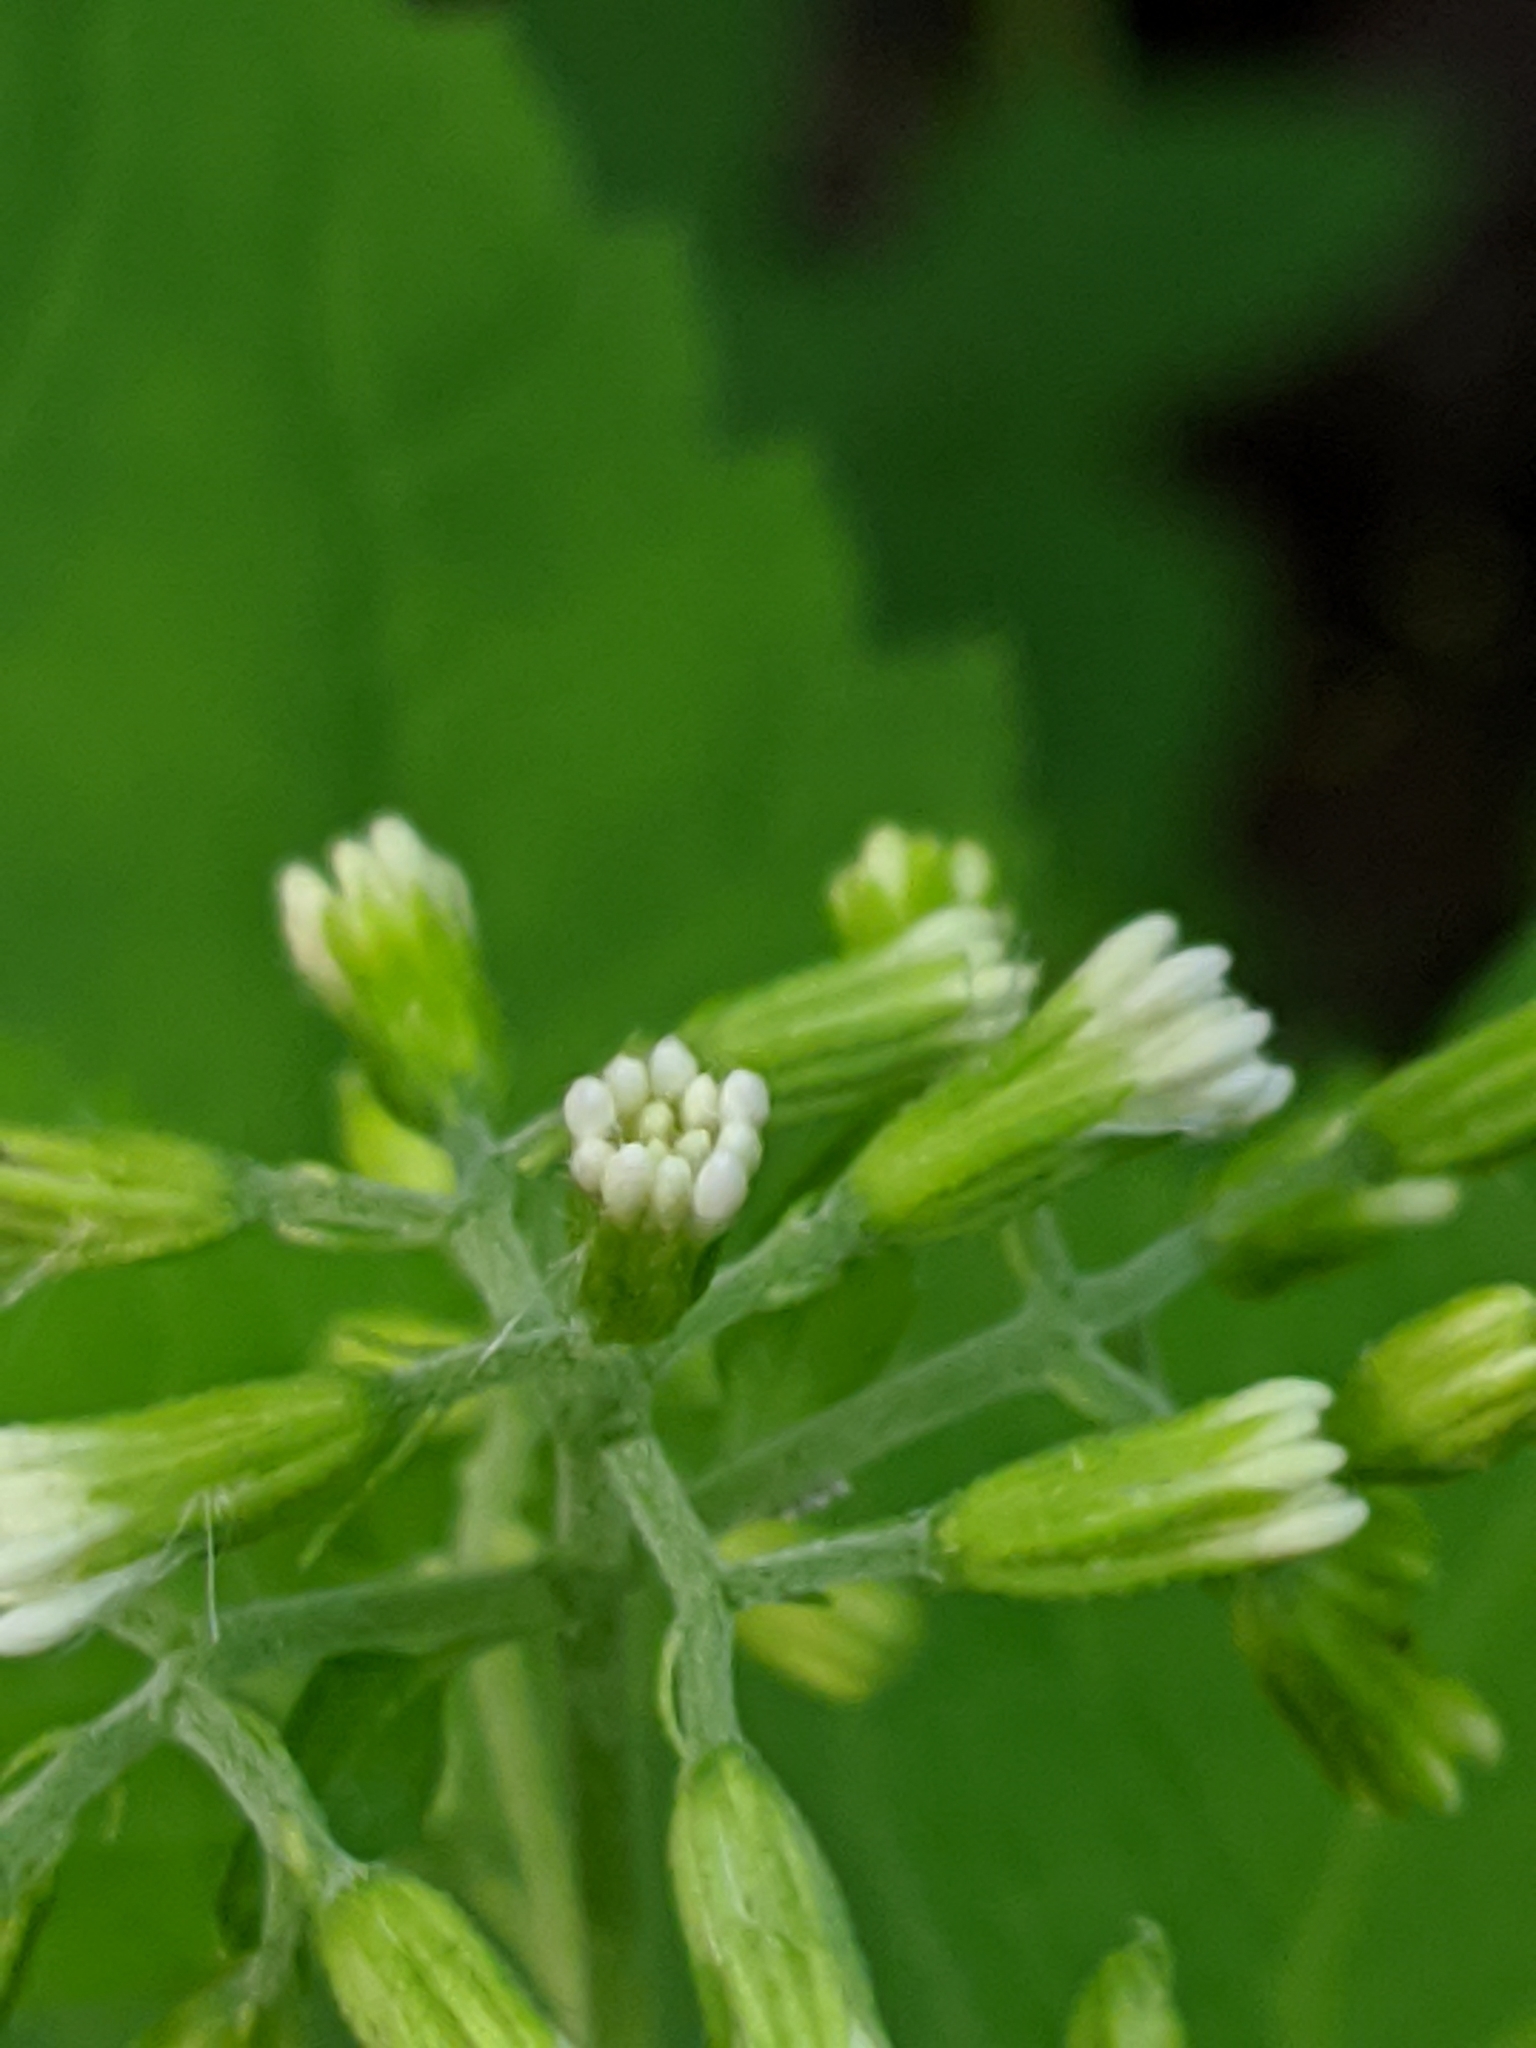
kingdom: Plantae
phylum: Tracheophyta
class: Magnoliopsida
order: Asterales
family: Asteraceae
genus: Ageratina
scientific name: Ageratina altissima
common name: White snakeroot
